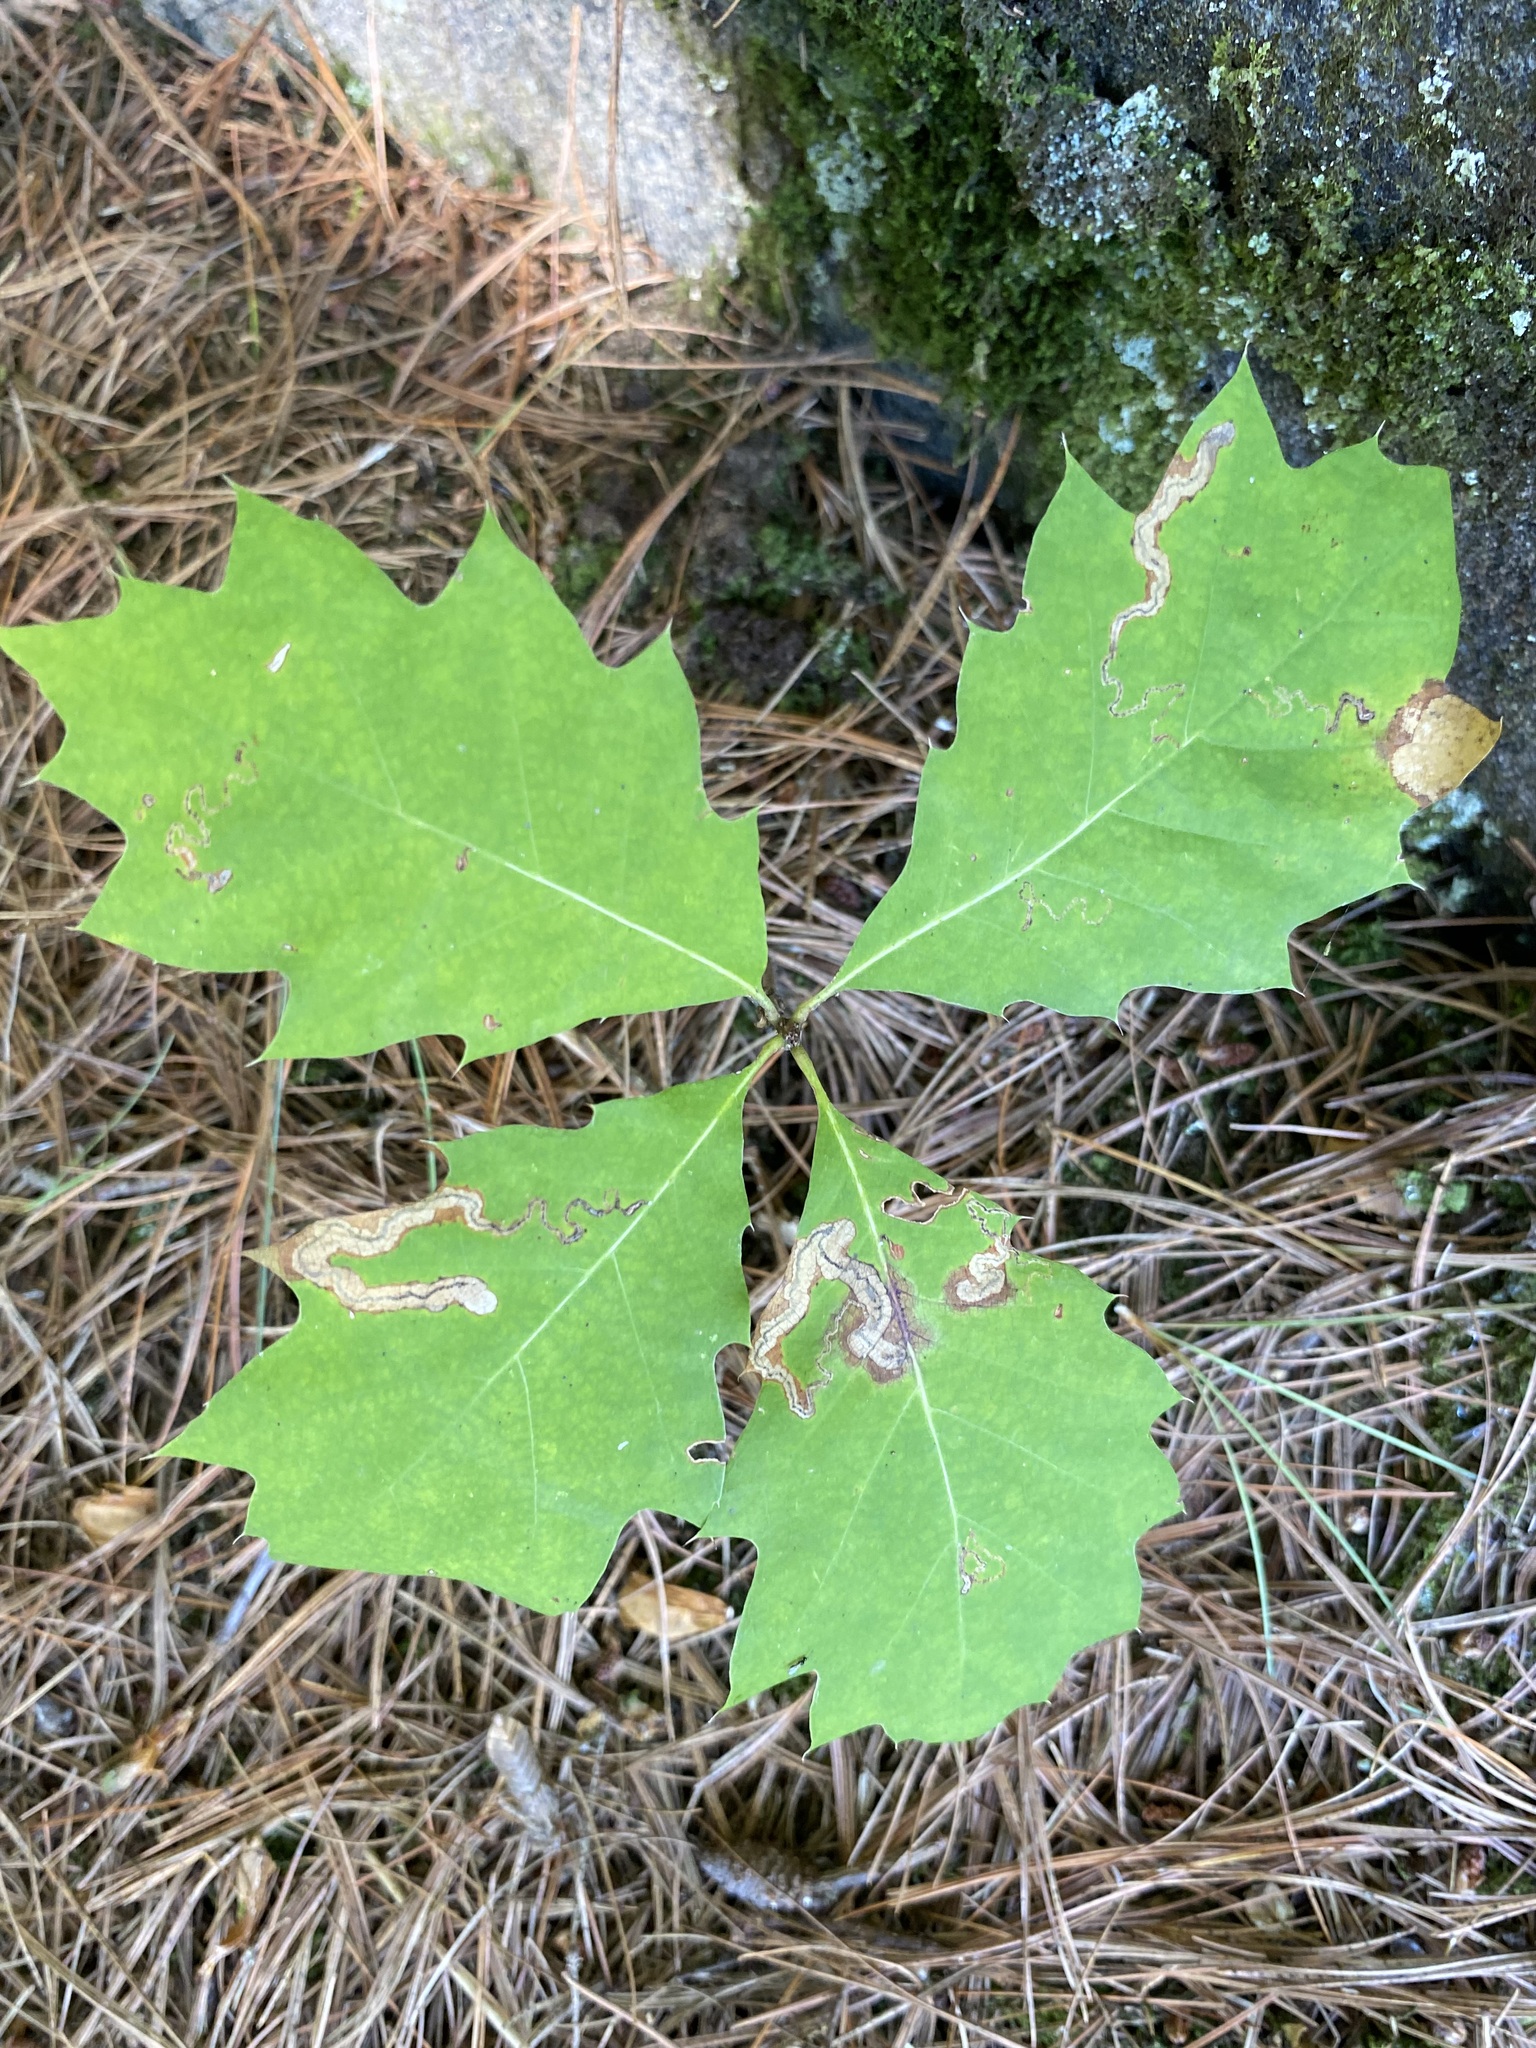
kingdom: Plantae
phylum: Tracheophyta
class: Magnoliopsida
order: Fagales
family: Fagaceae
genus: Quercus
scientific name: Quercus rubra
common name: Red oak
